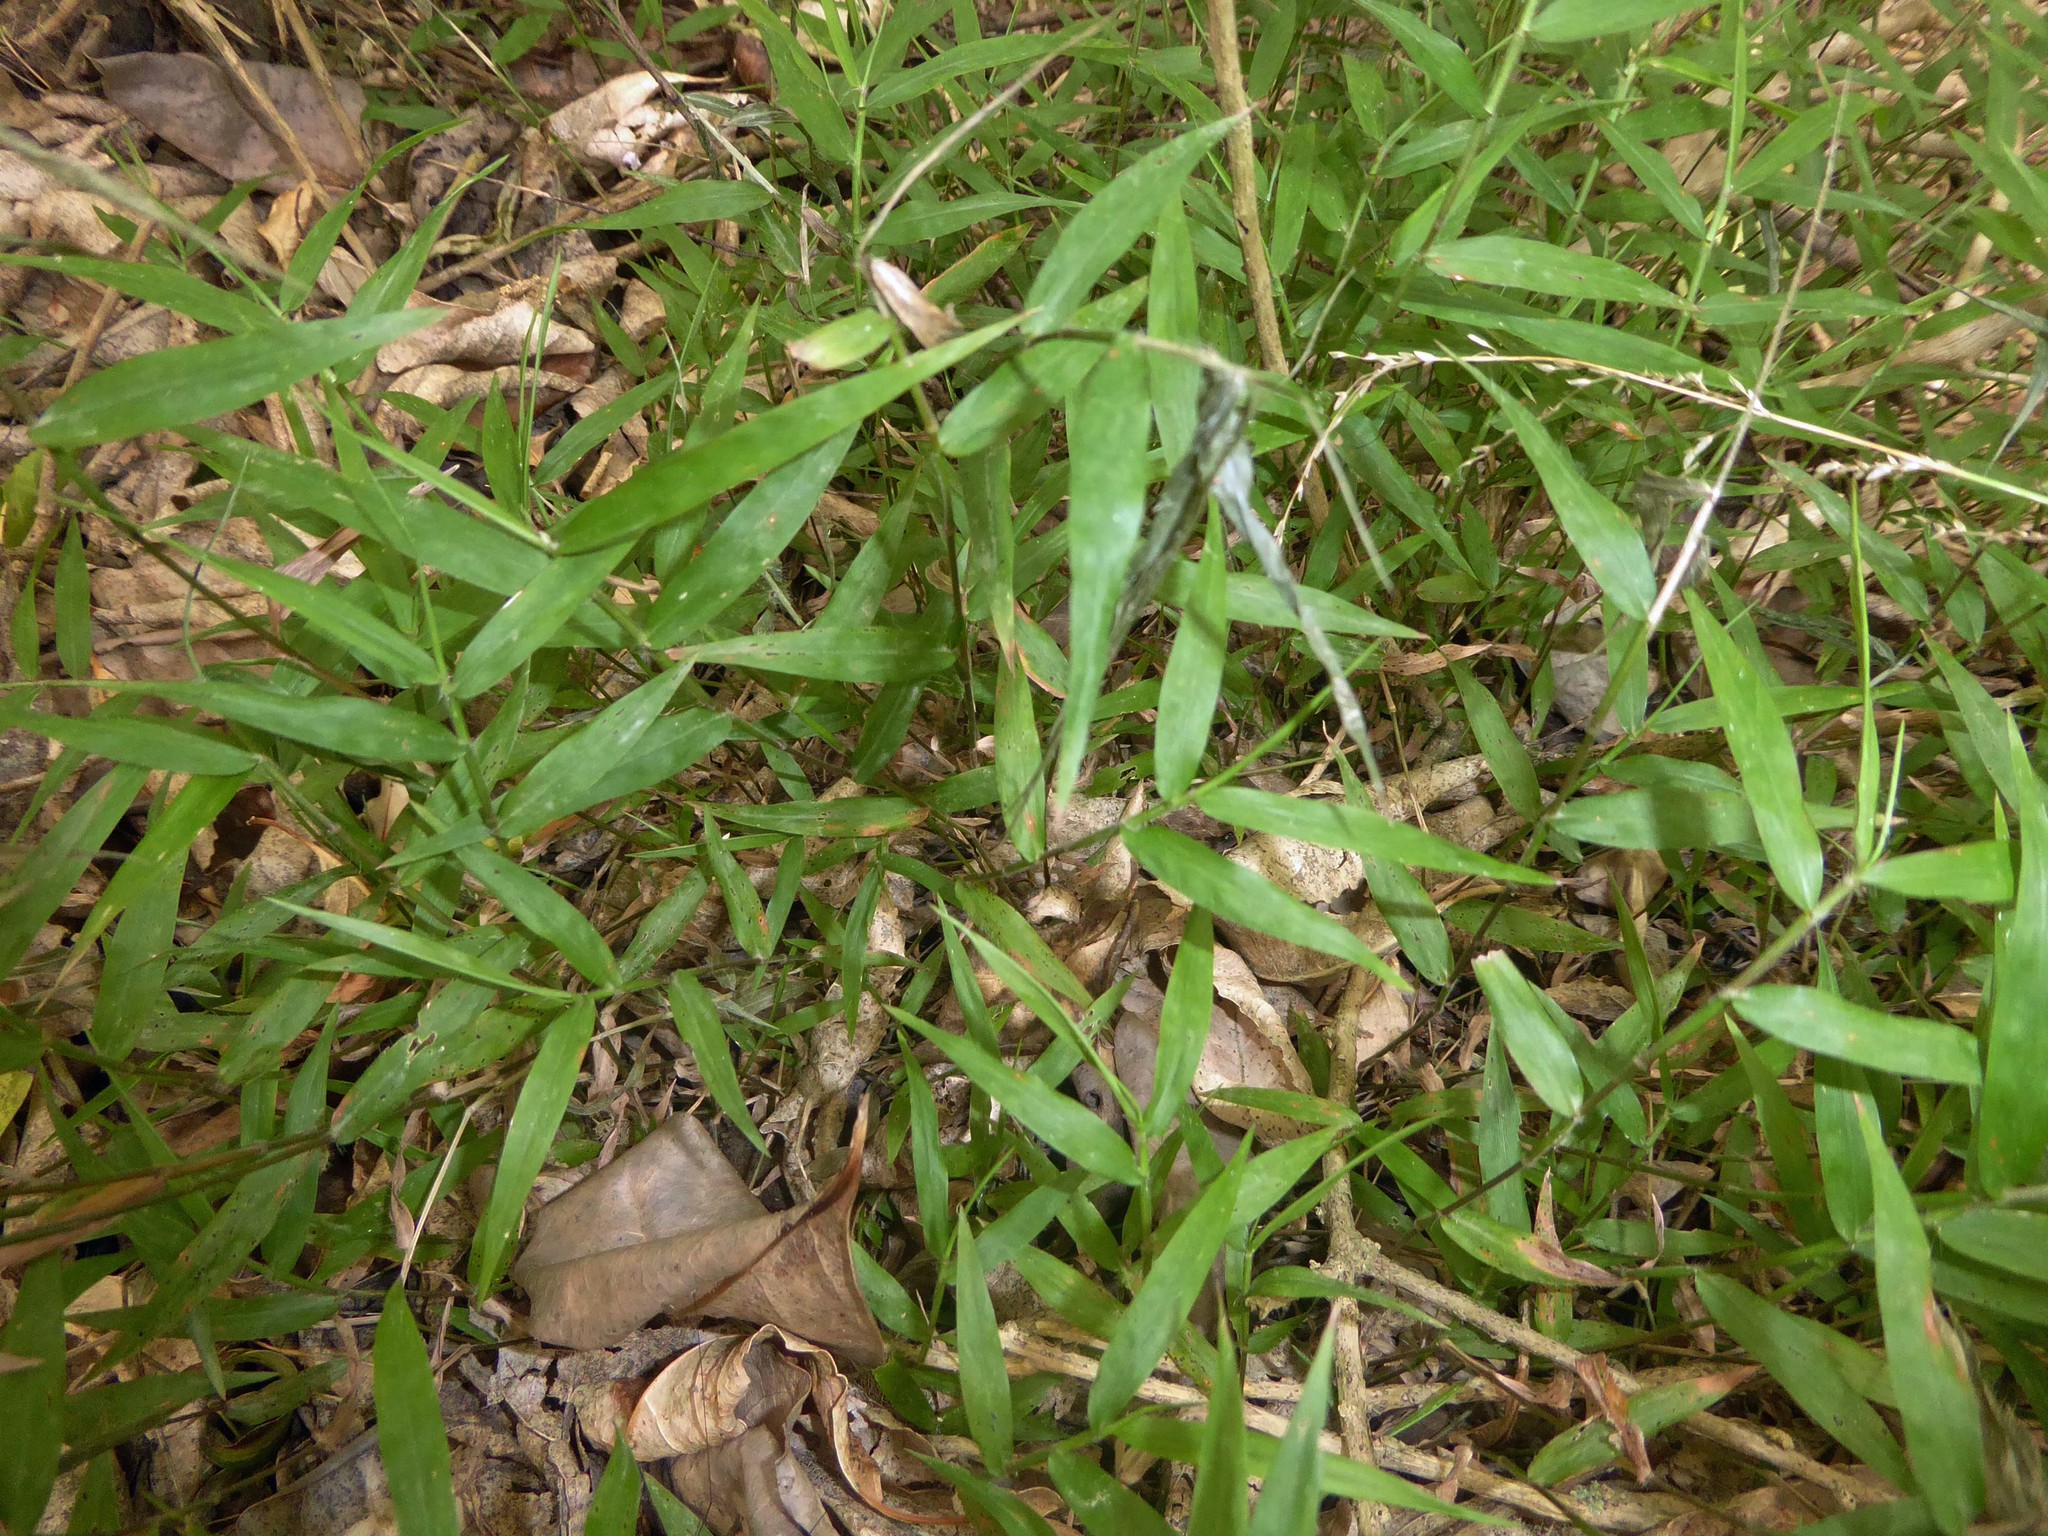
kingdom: Plantae
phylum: Tracheophyta
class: Liliopsida
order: Poales
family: Poaceae
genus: Oplismenus
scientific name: Oplismenus hirtellus
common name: Basketgrass
